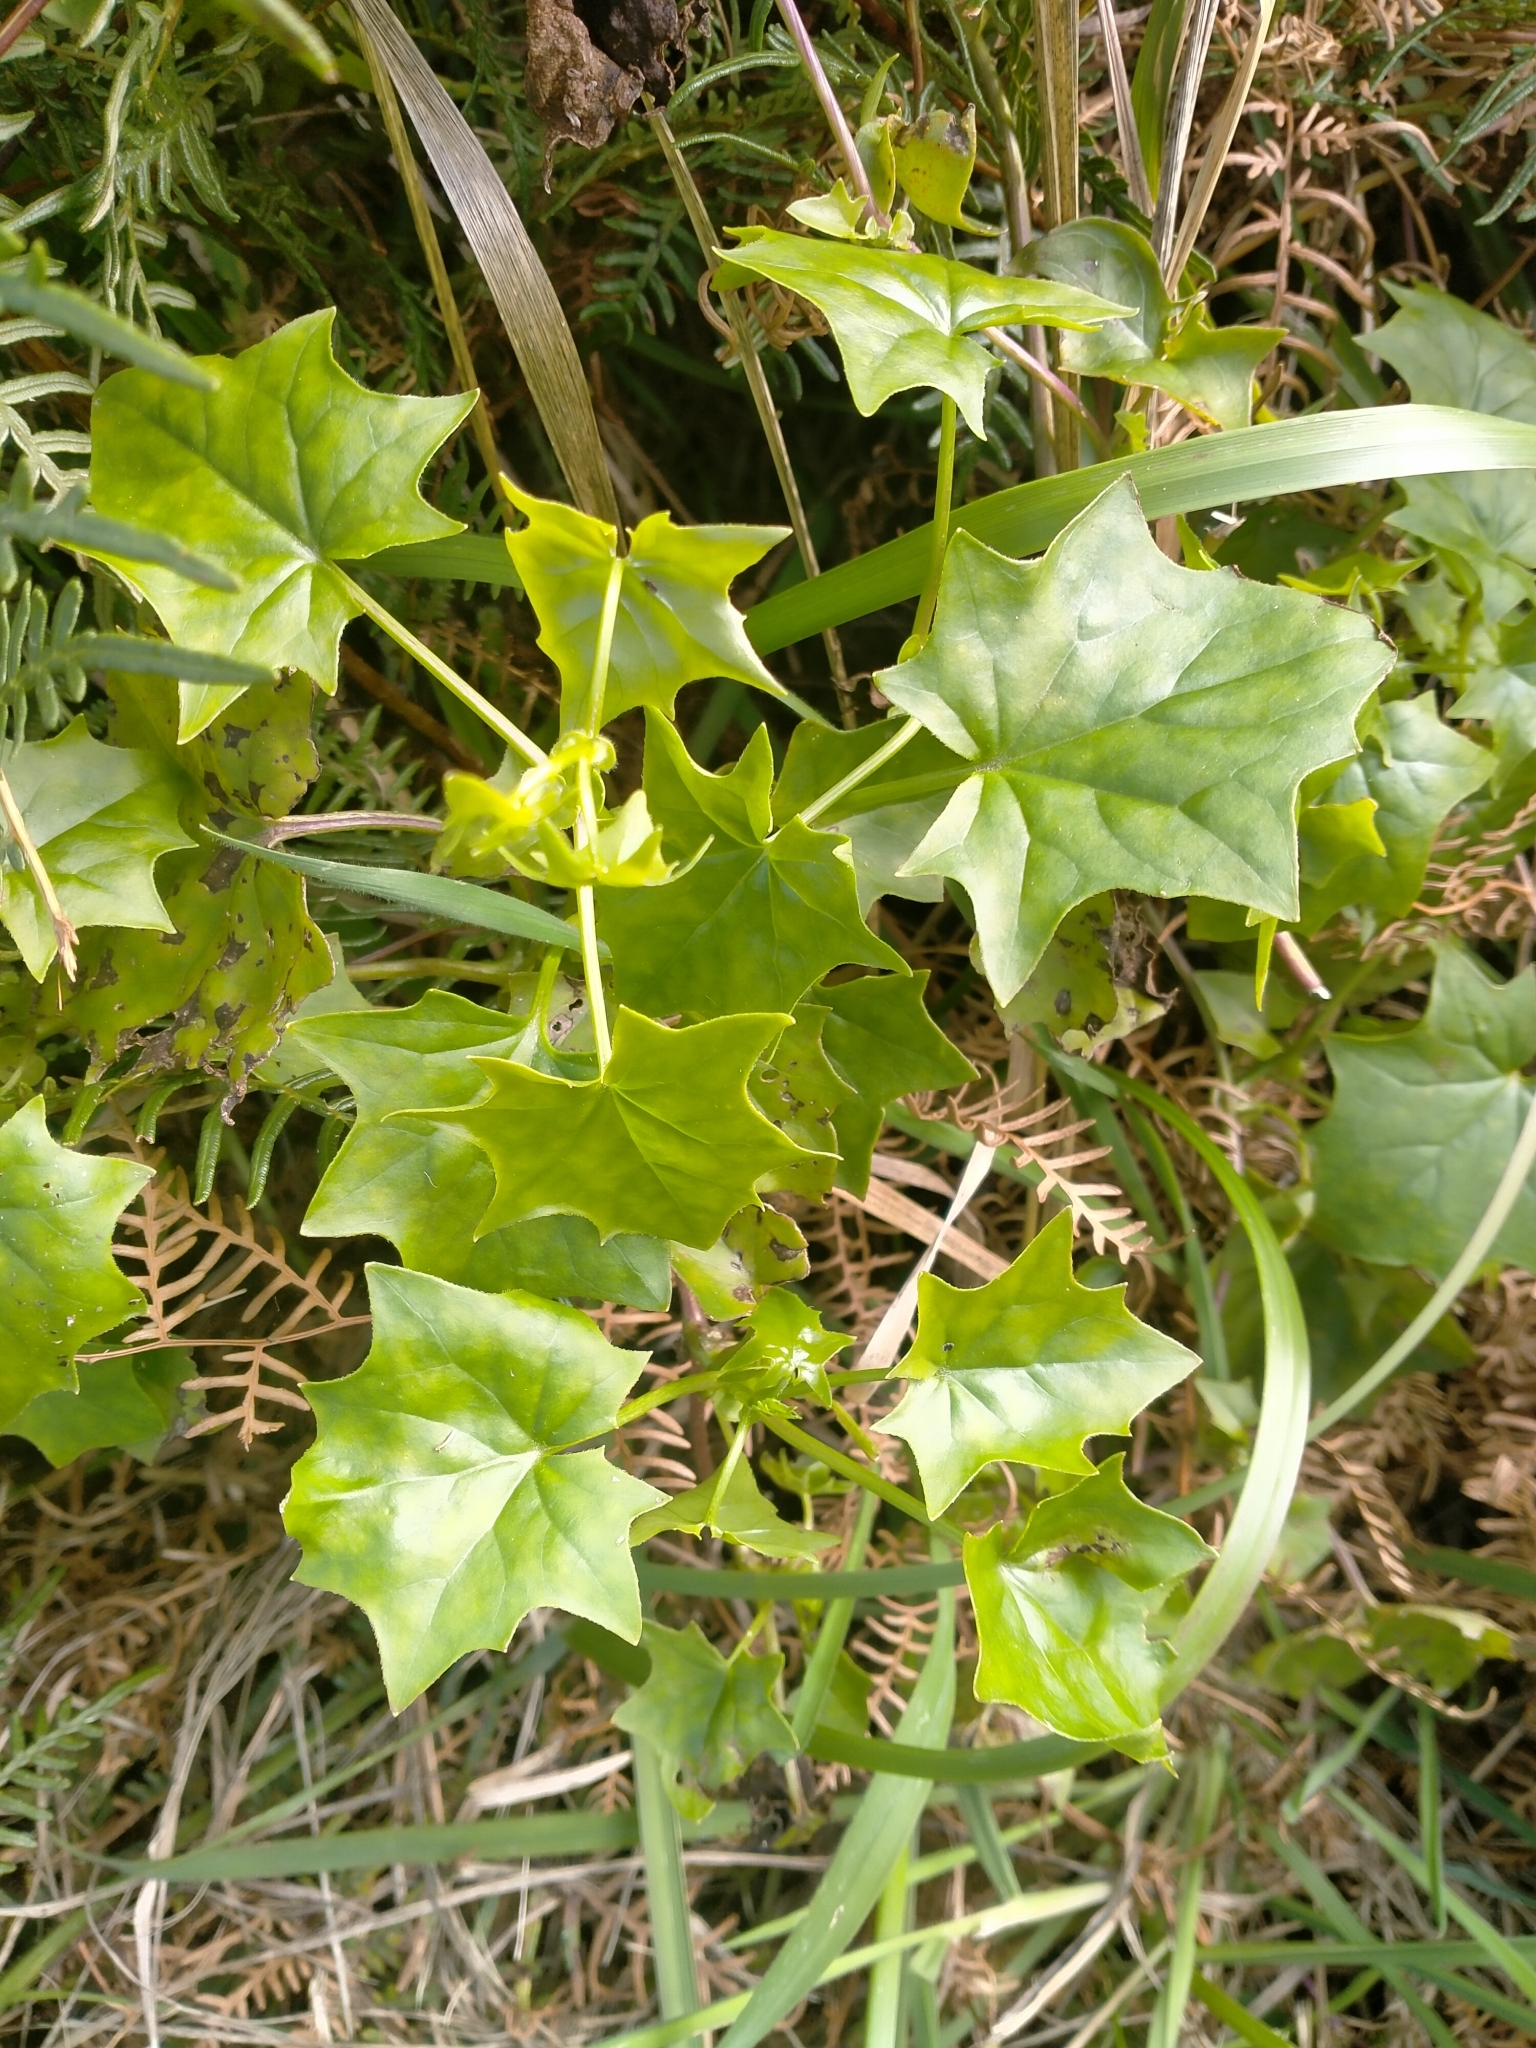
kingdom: Plantae
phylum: Tracheophyta
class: Magnoliopsida
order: Asterales
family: Asteraceae
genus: Delairea
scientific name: Delairea odorata
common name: Cape-ivy
